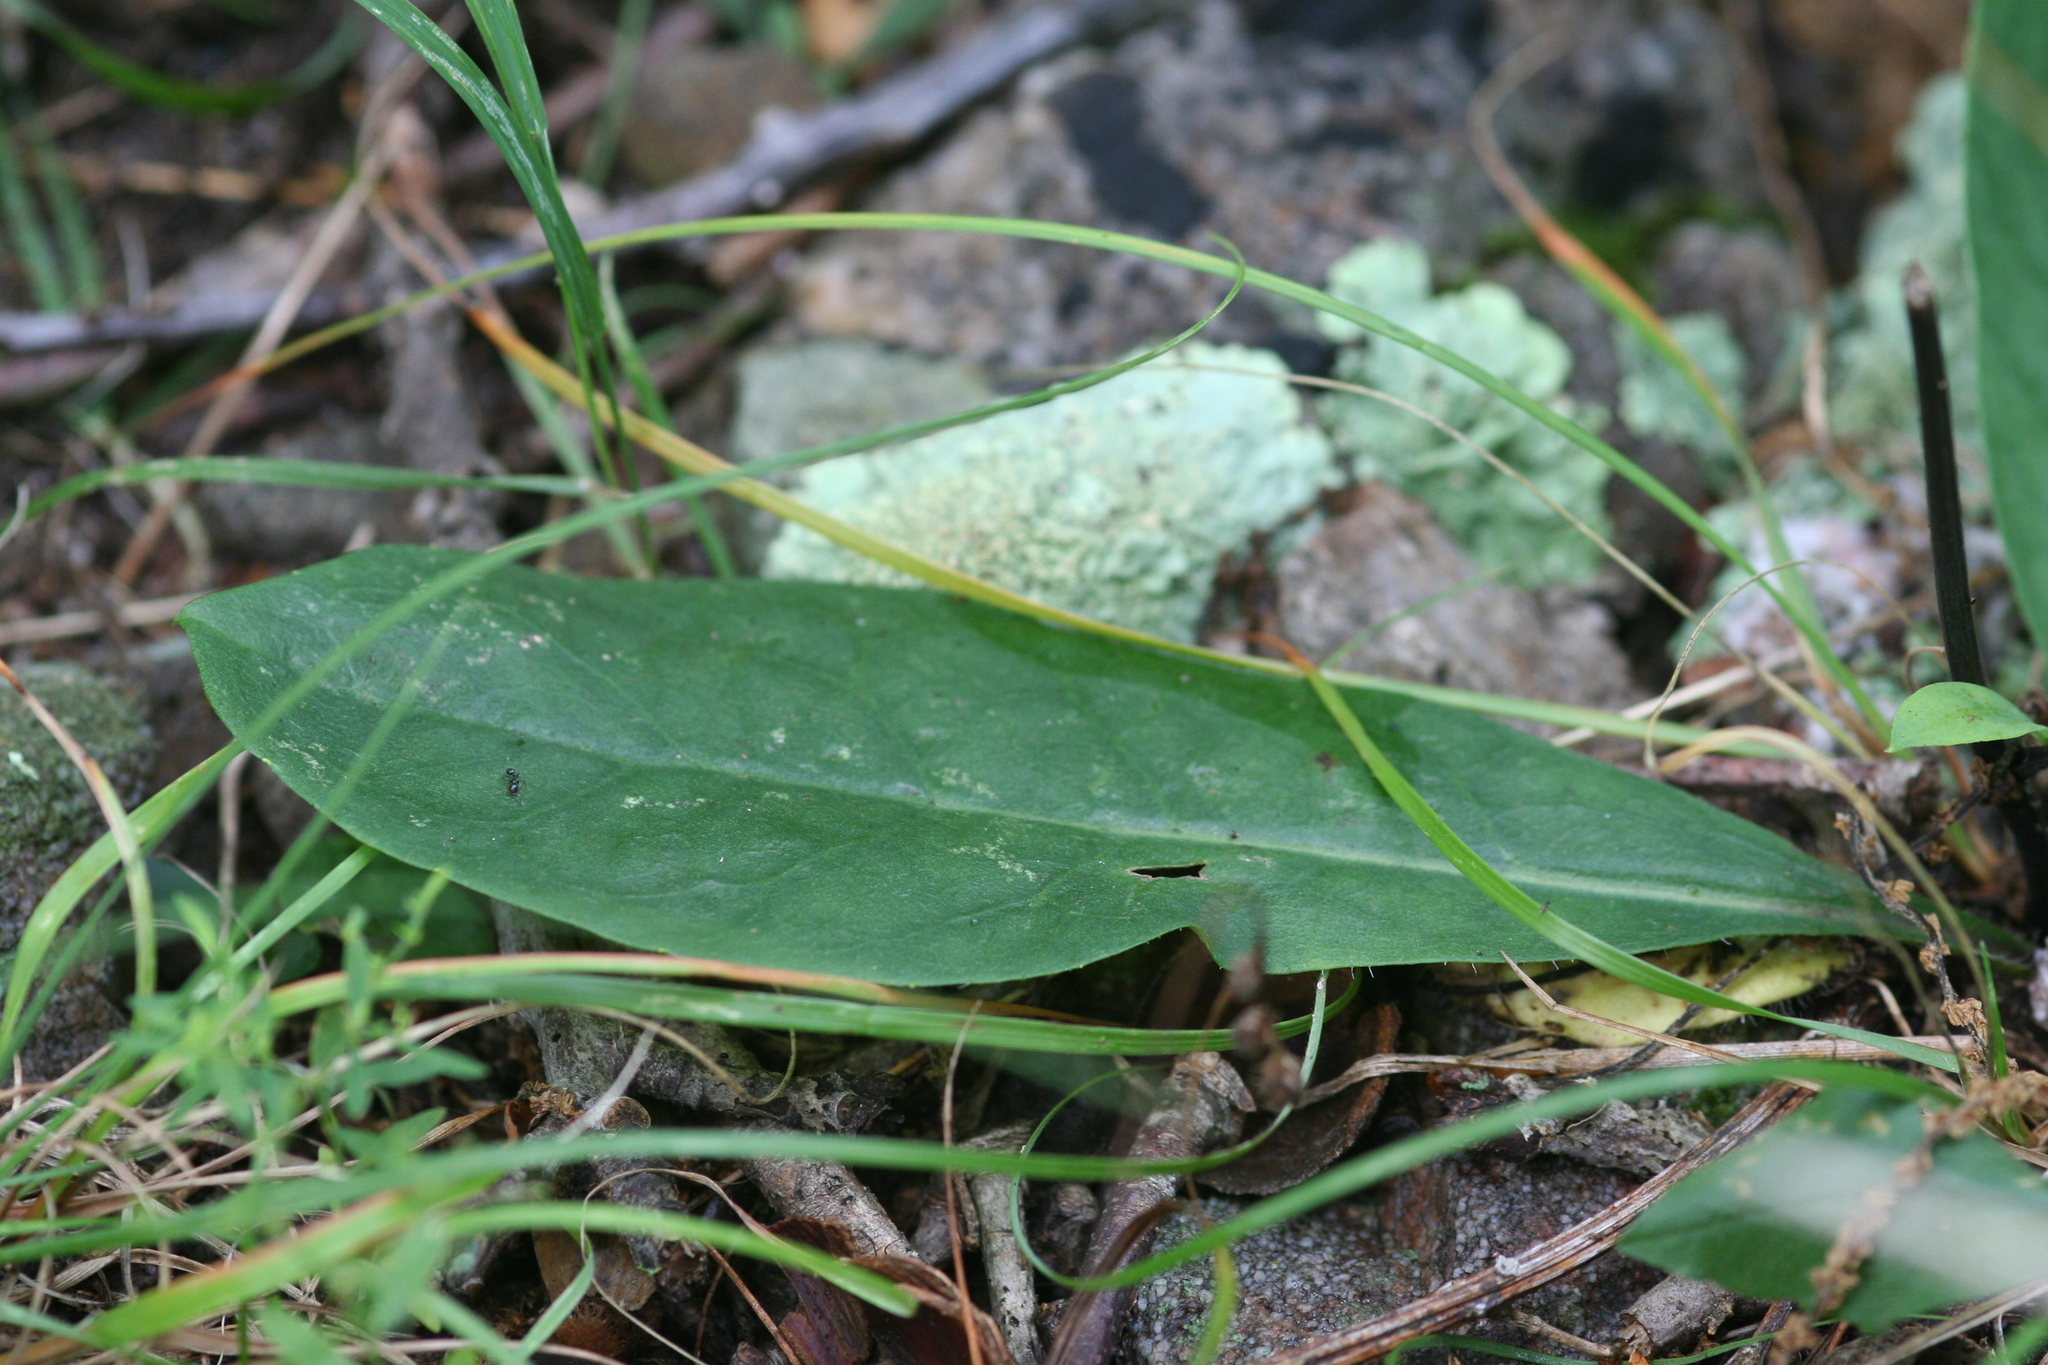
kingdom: Plantae
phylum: Tracheophyta
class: Magnoliopsida
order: Asterales
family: Asteraceae
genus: Hieracium
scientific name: Hieracium venosum
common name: Rattlesnake hawkweed
